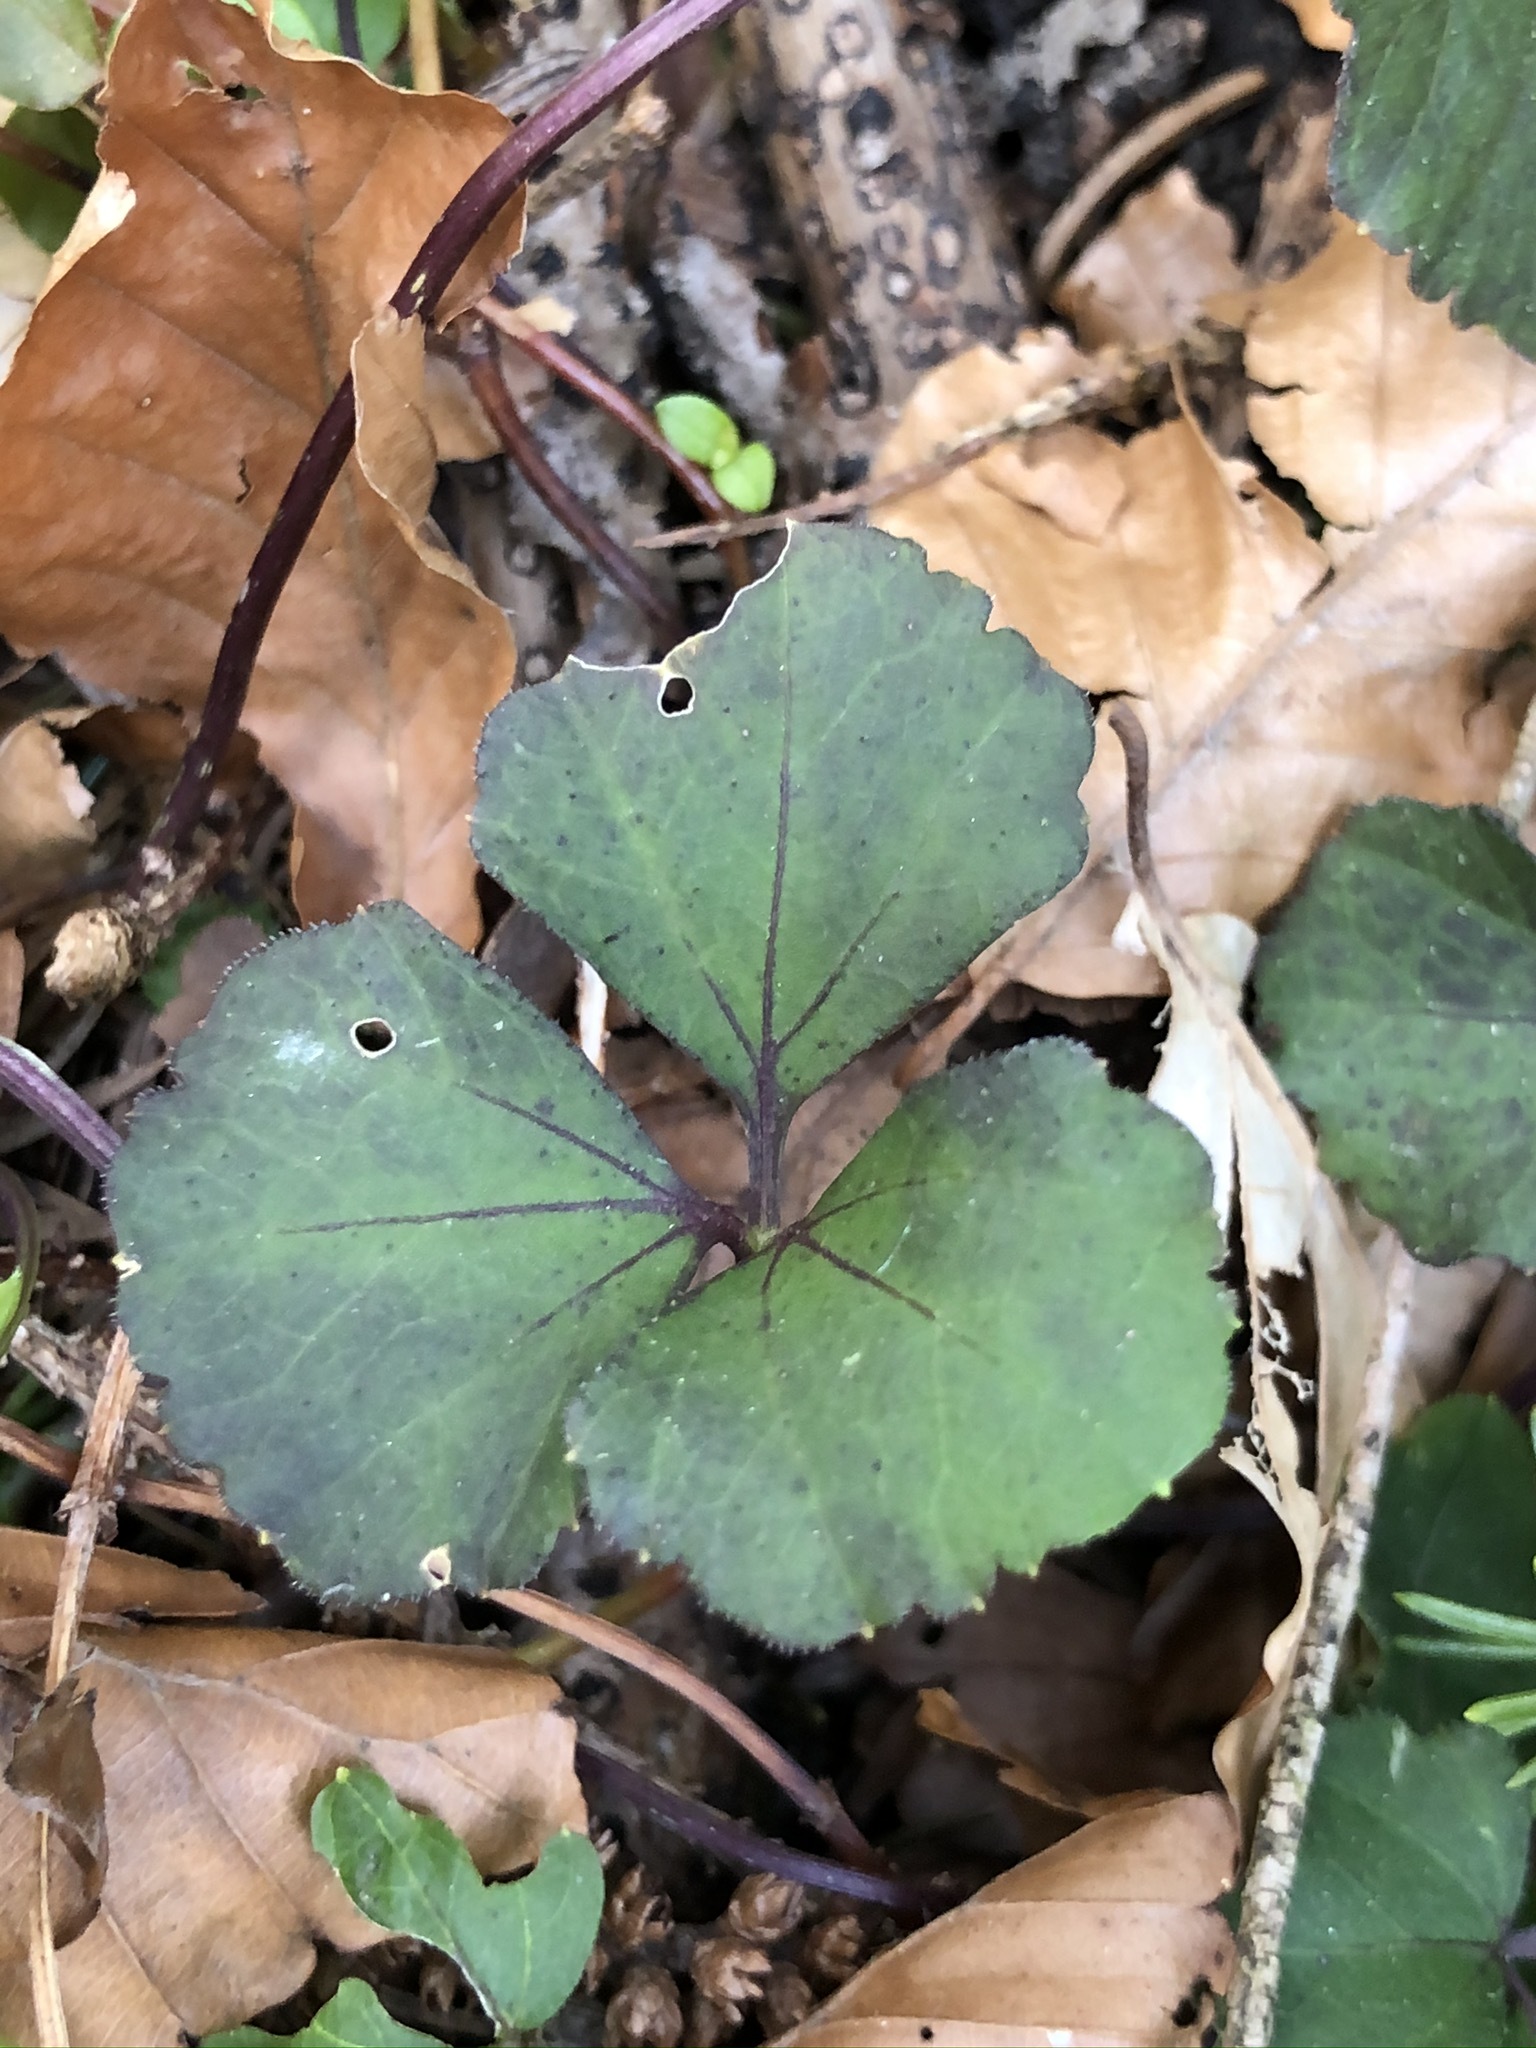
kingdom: Plantae
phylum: Tracheophyta
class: Magnoliopsida
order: Brassicales
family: Brassicaceae
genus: Cardamine
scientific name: Cardamine trifolia
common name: Trefoil cress
